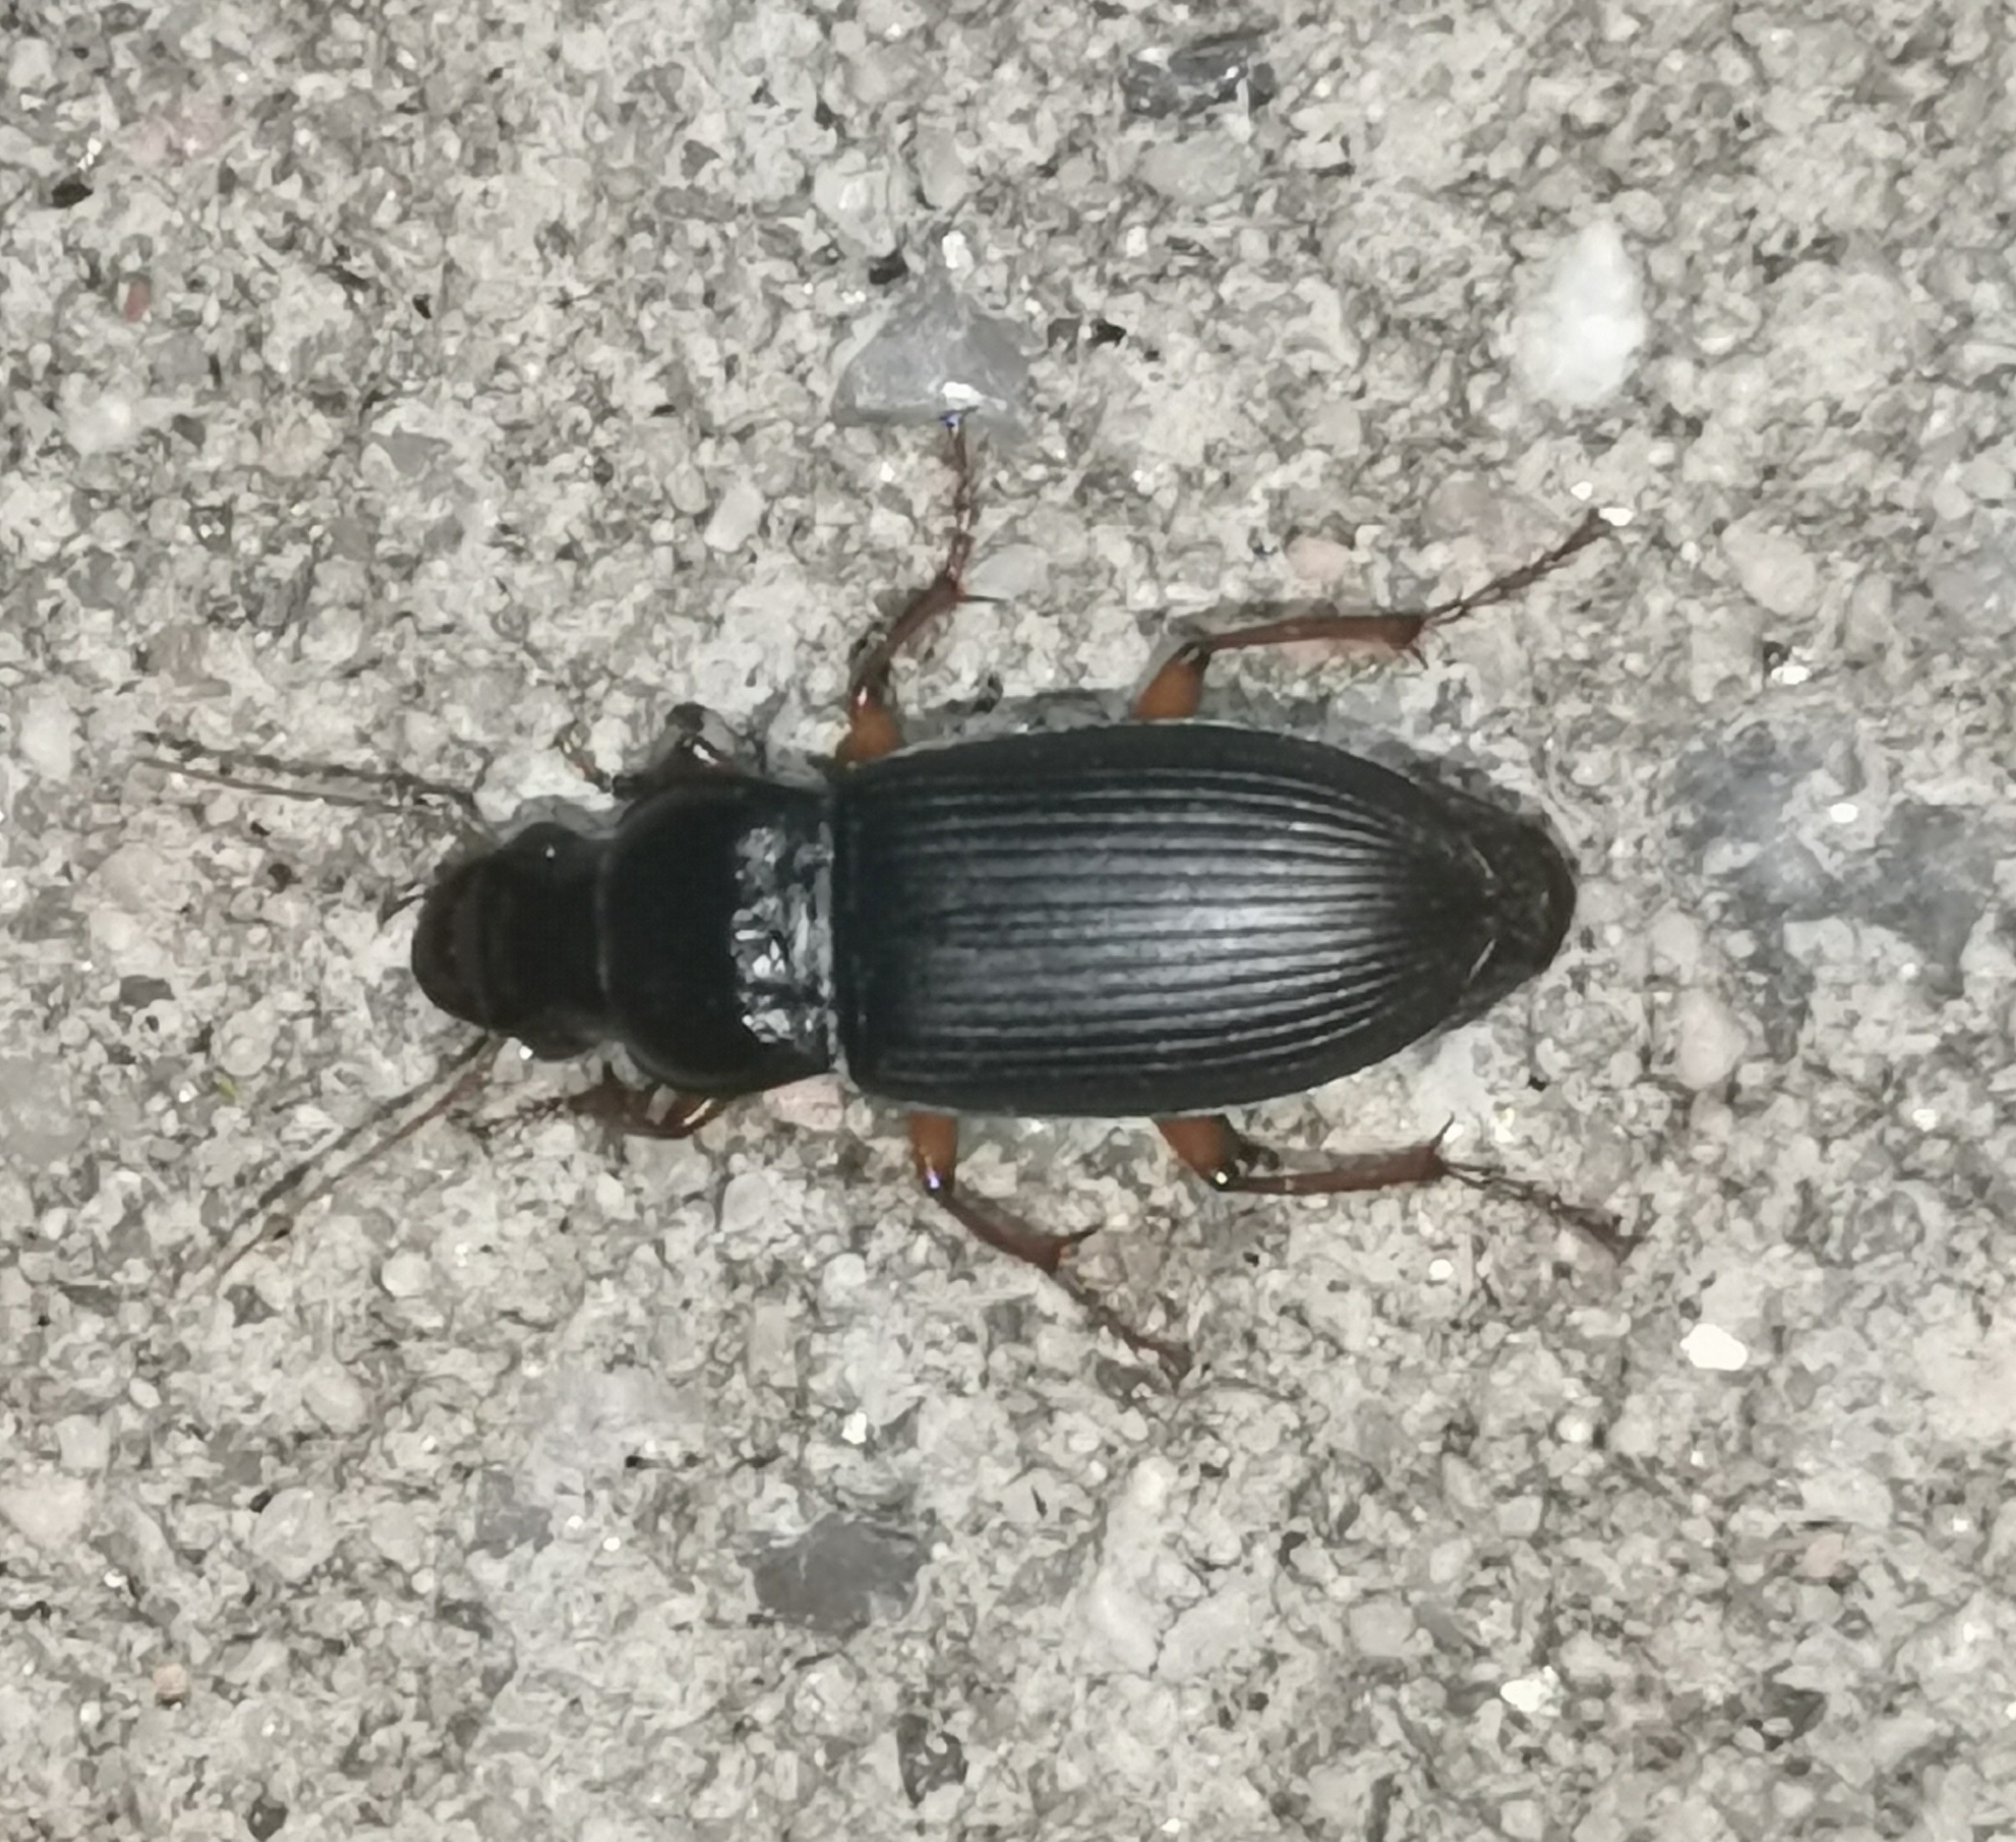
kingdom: Animalia
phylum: Arthropoda
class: Insecta
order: Coleoptera
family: Carabidae
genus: Harpalus
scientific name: Harpalus rufipes
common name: Strawberry harp ground beetle
